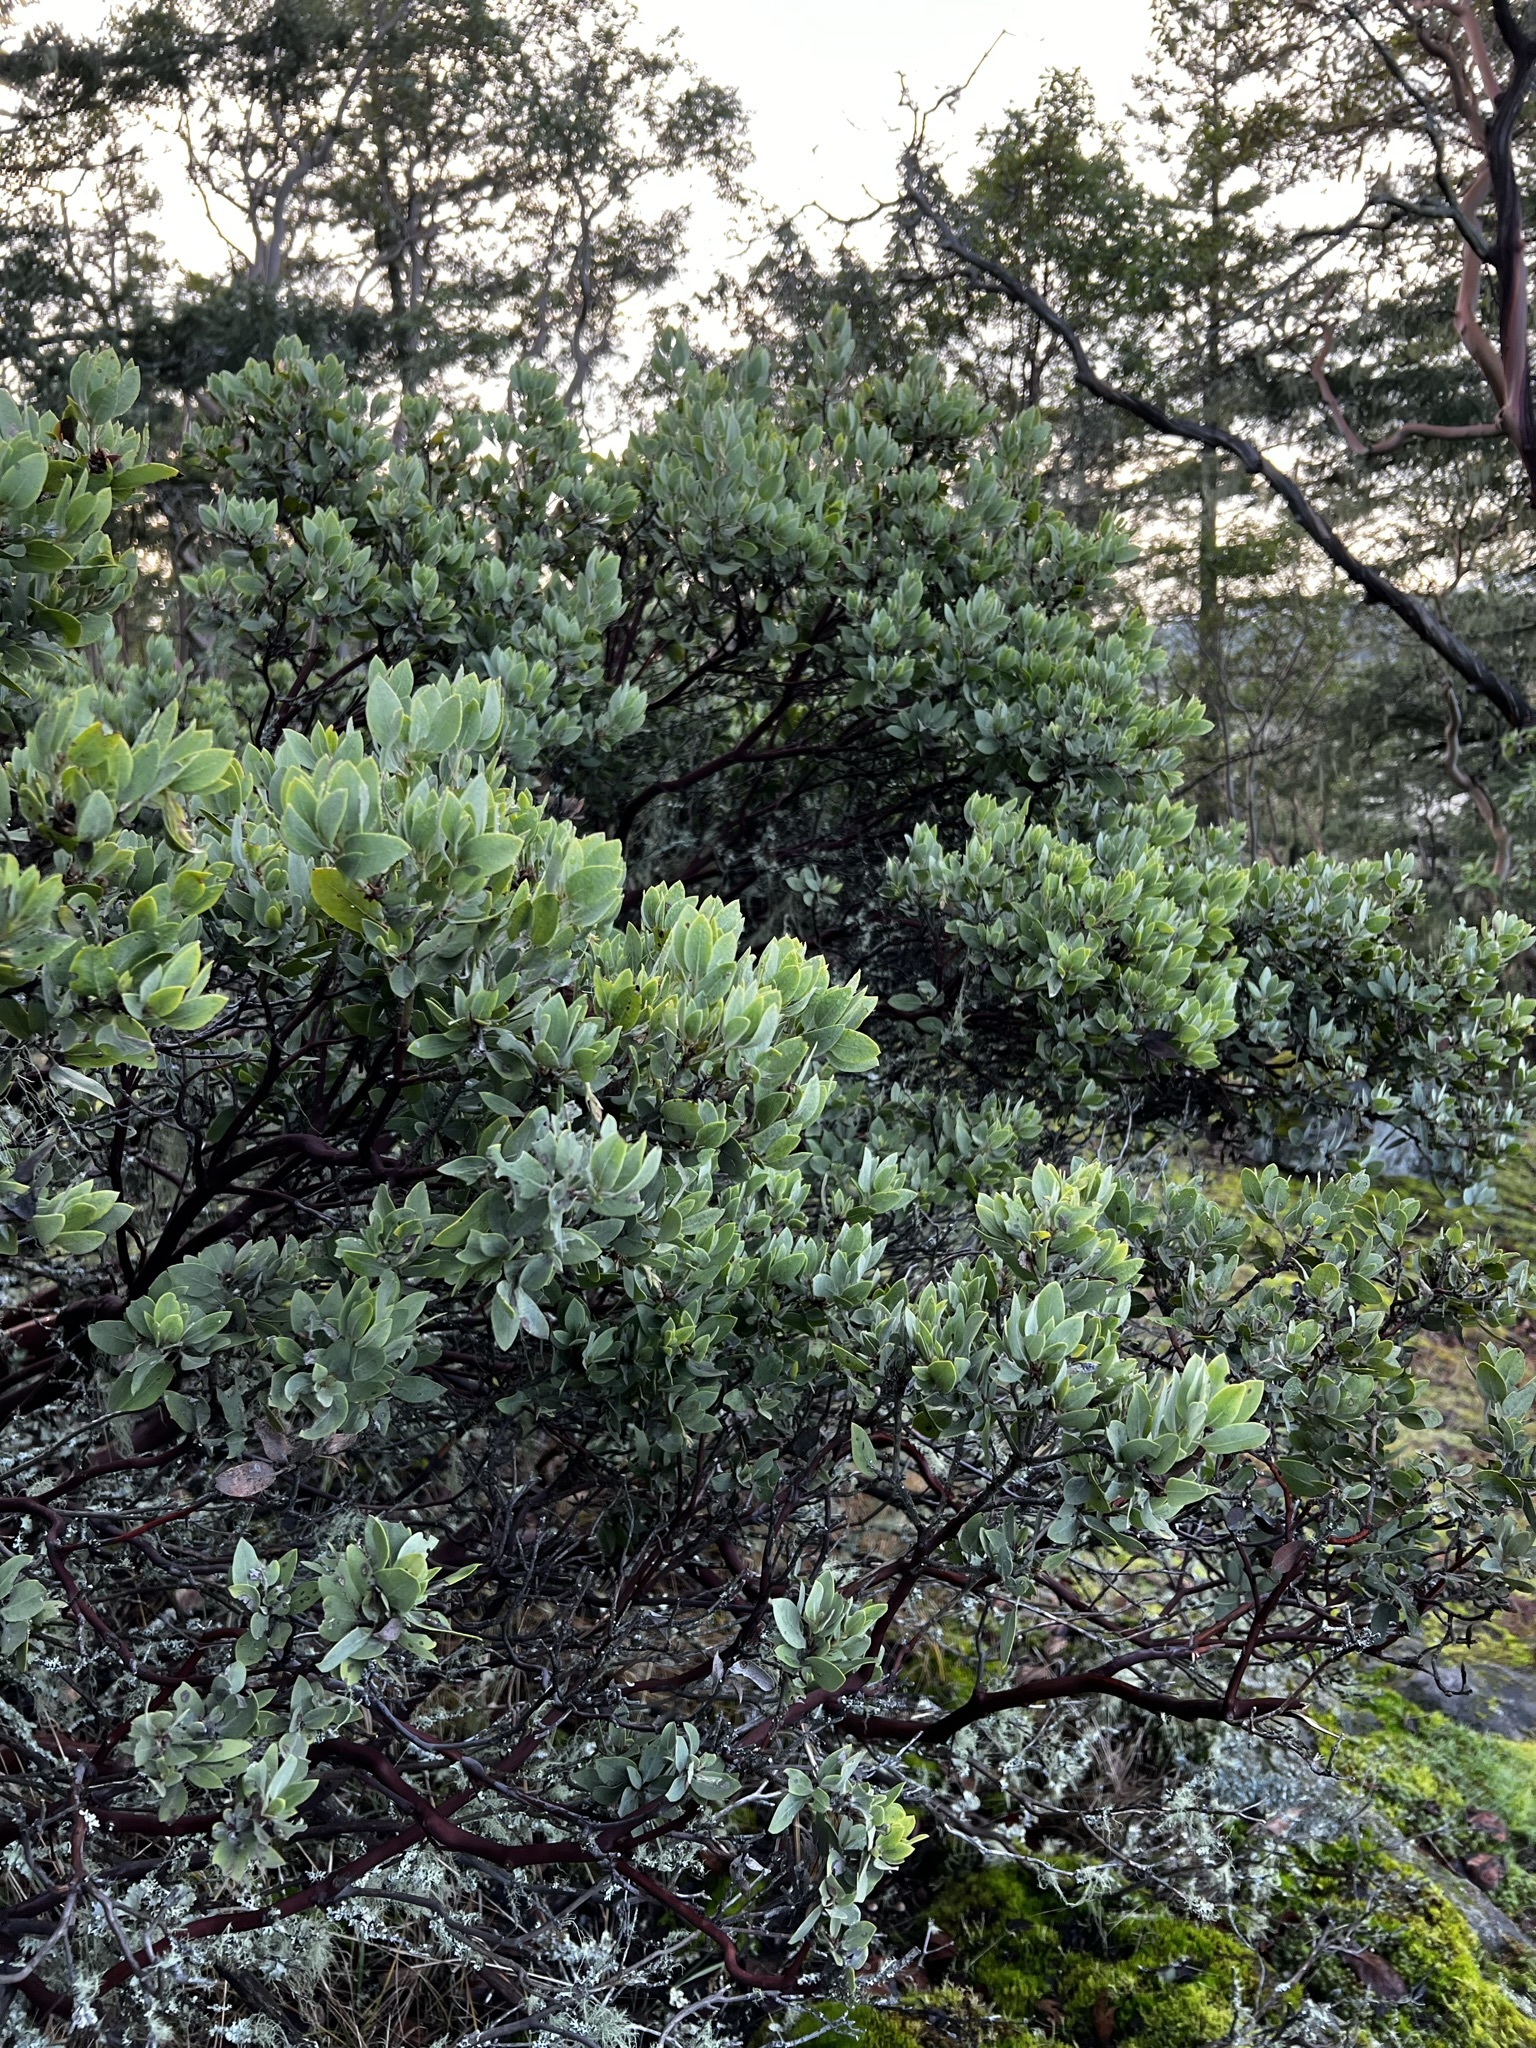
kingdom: Plantae
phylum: Tracheophyta
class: Magnoliopsida
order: Ericales
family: Ericaceae
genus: Arctostaphylos
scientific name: Arctostaphylos columbiana
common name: Bristly bearberry
